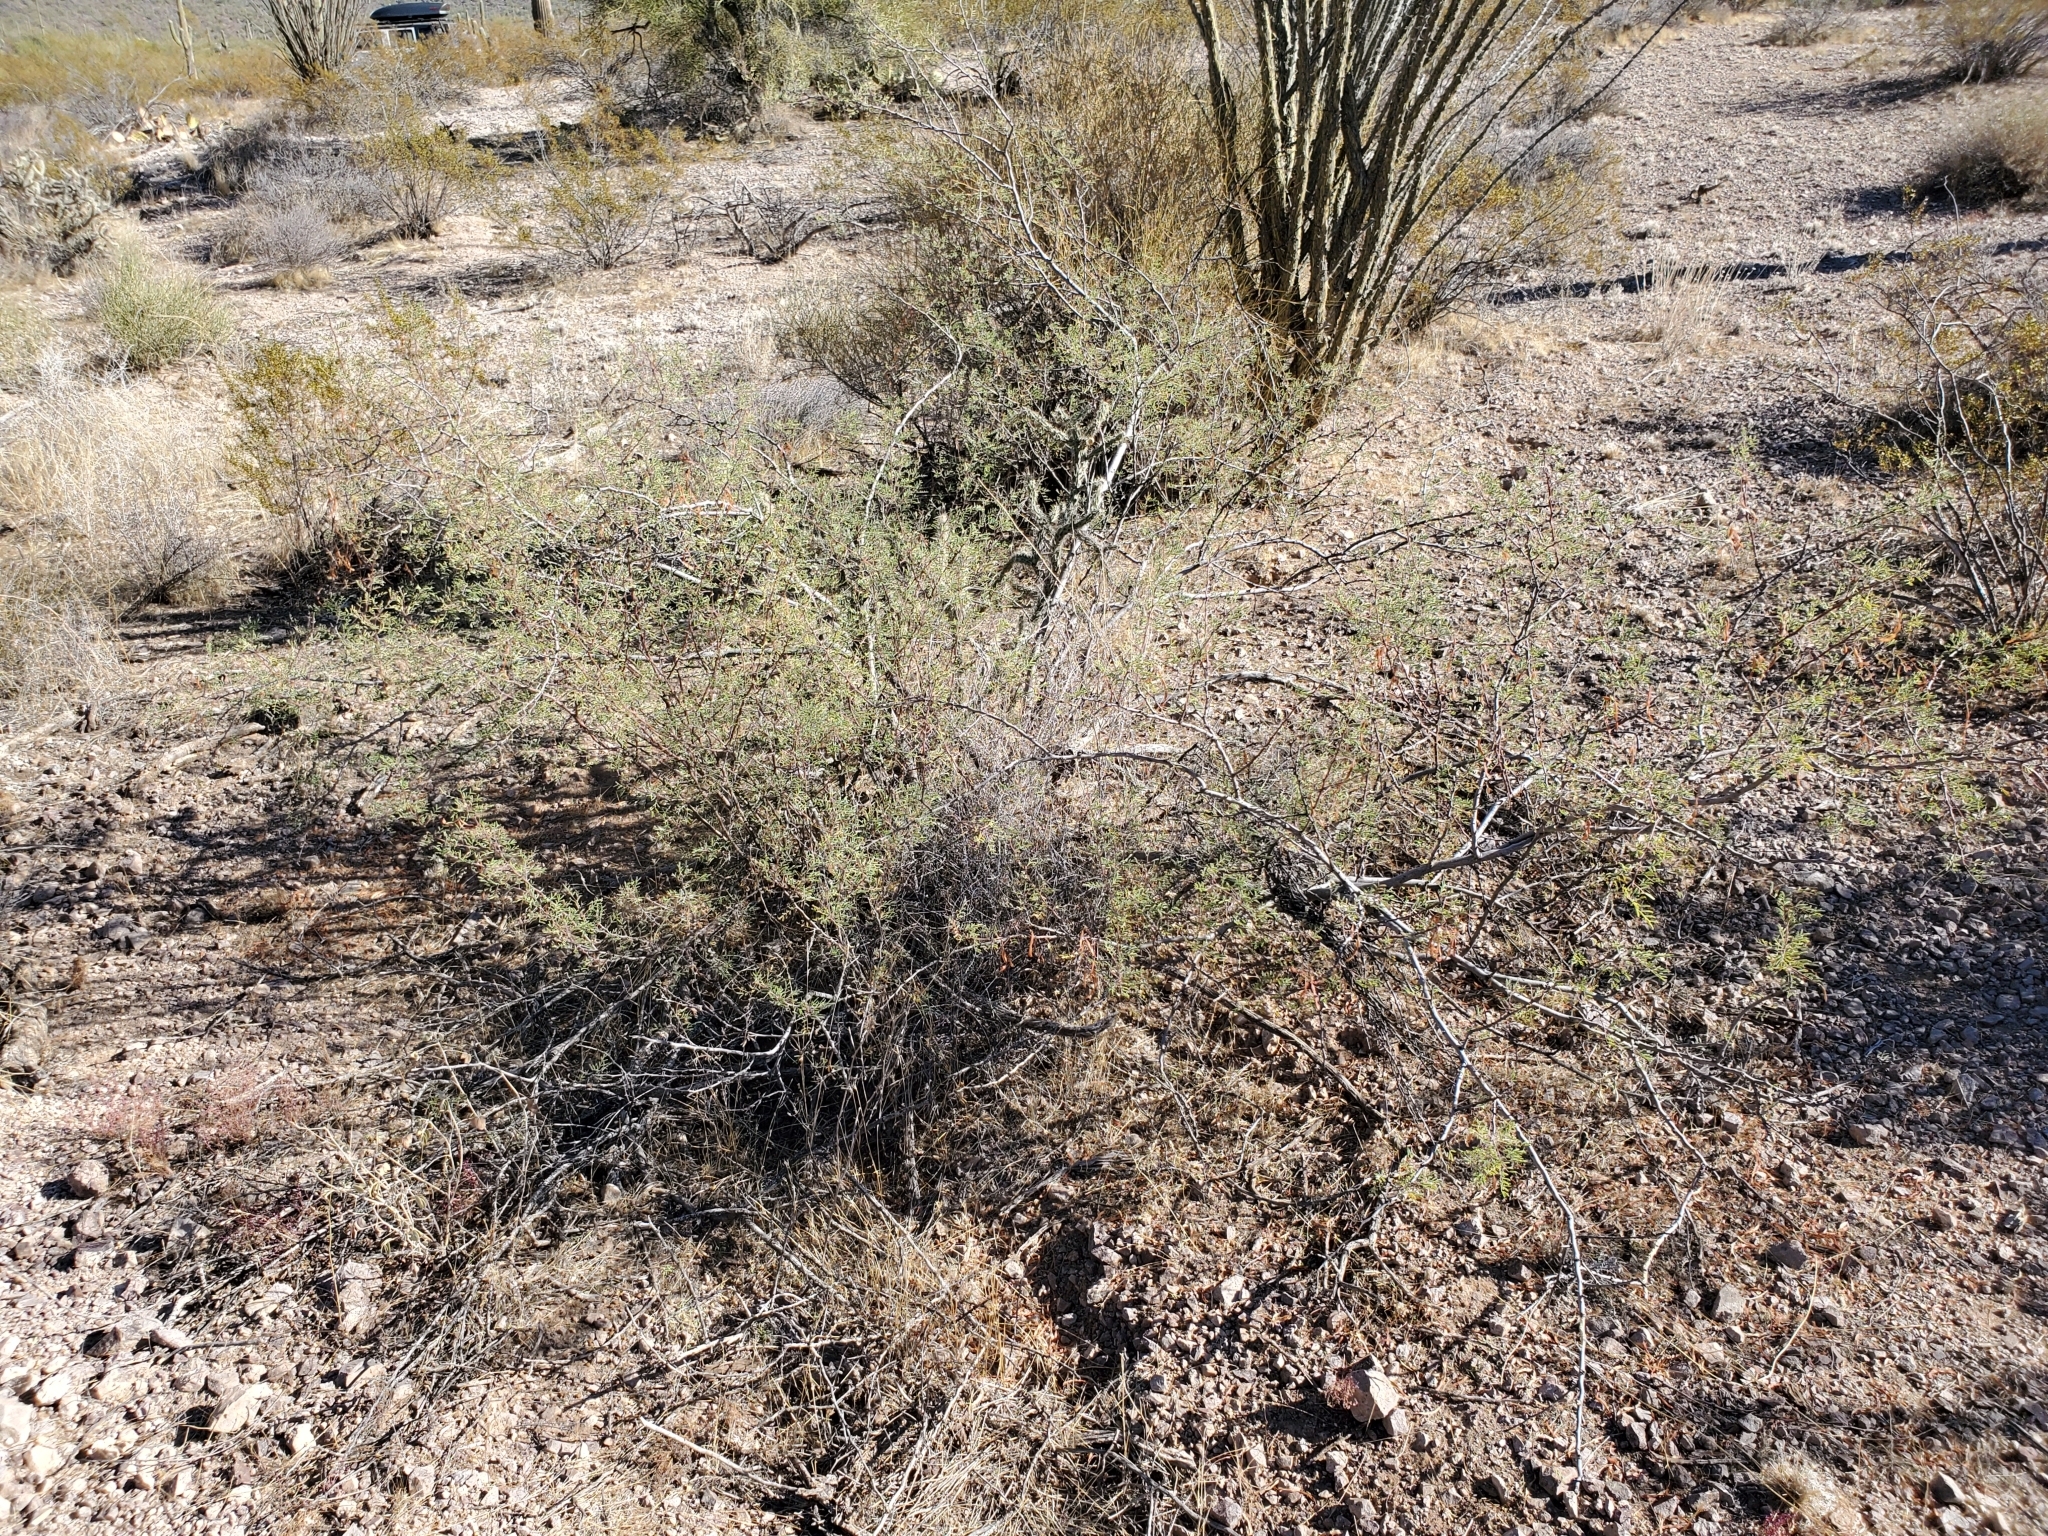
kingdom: Plantae
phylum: Tracheophyta
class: Magnoliopsida
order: Fabales
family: Fabaceae
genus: Vachellia
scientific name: Vachellia constricta
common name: Mescat acacia
